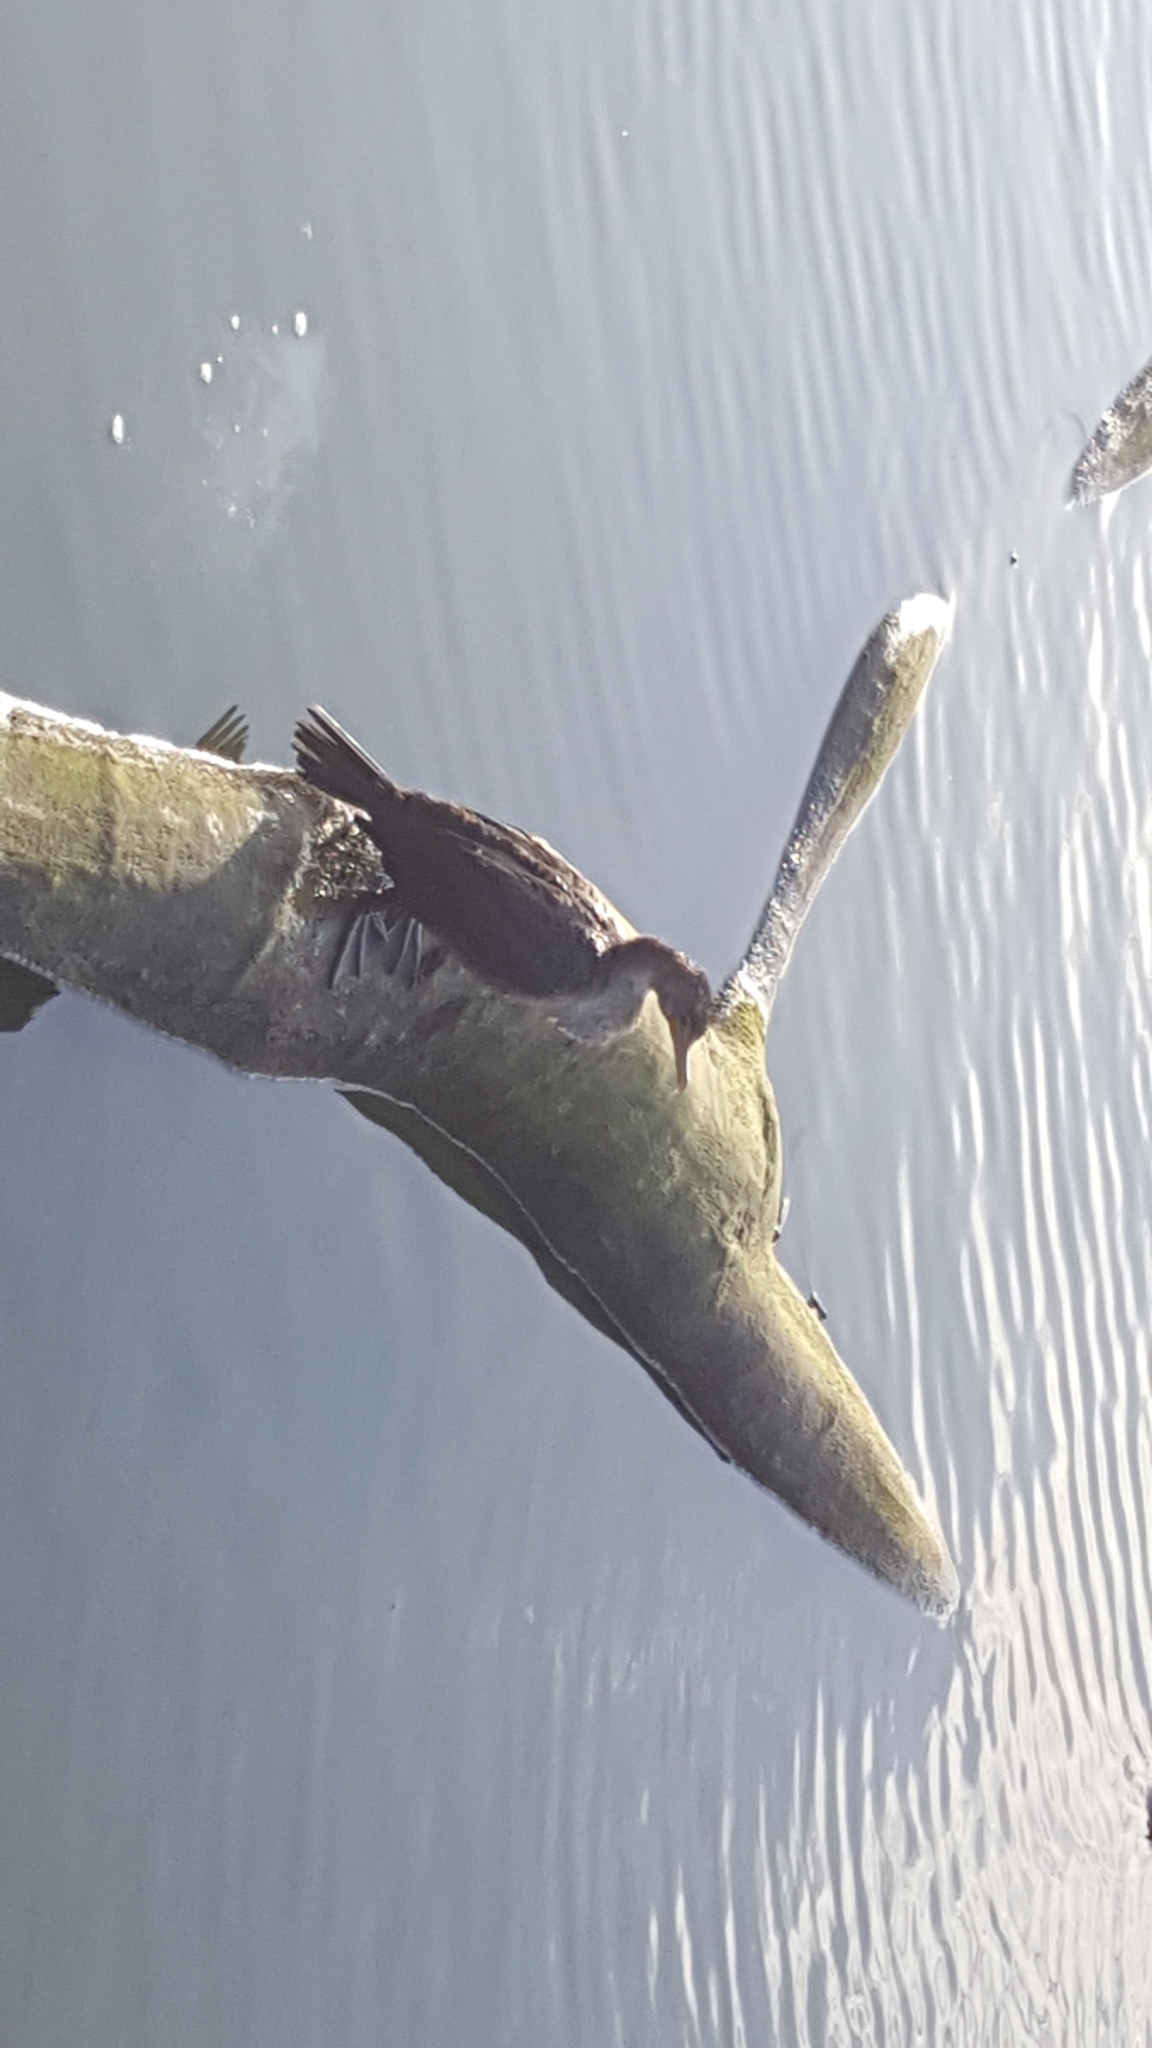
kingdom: Animalia
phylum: Chordata
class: Aves
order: Suliformes
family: Phalacrocoracidae
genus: Phalacrocorax
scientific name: Phalacrocorax auritus
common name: Double-crested cormorant
